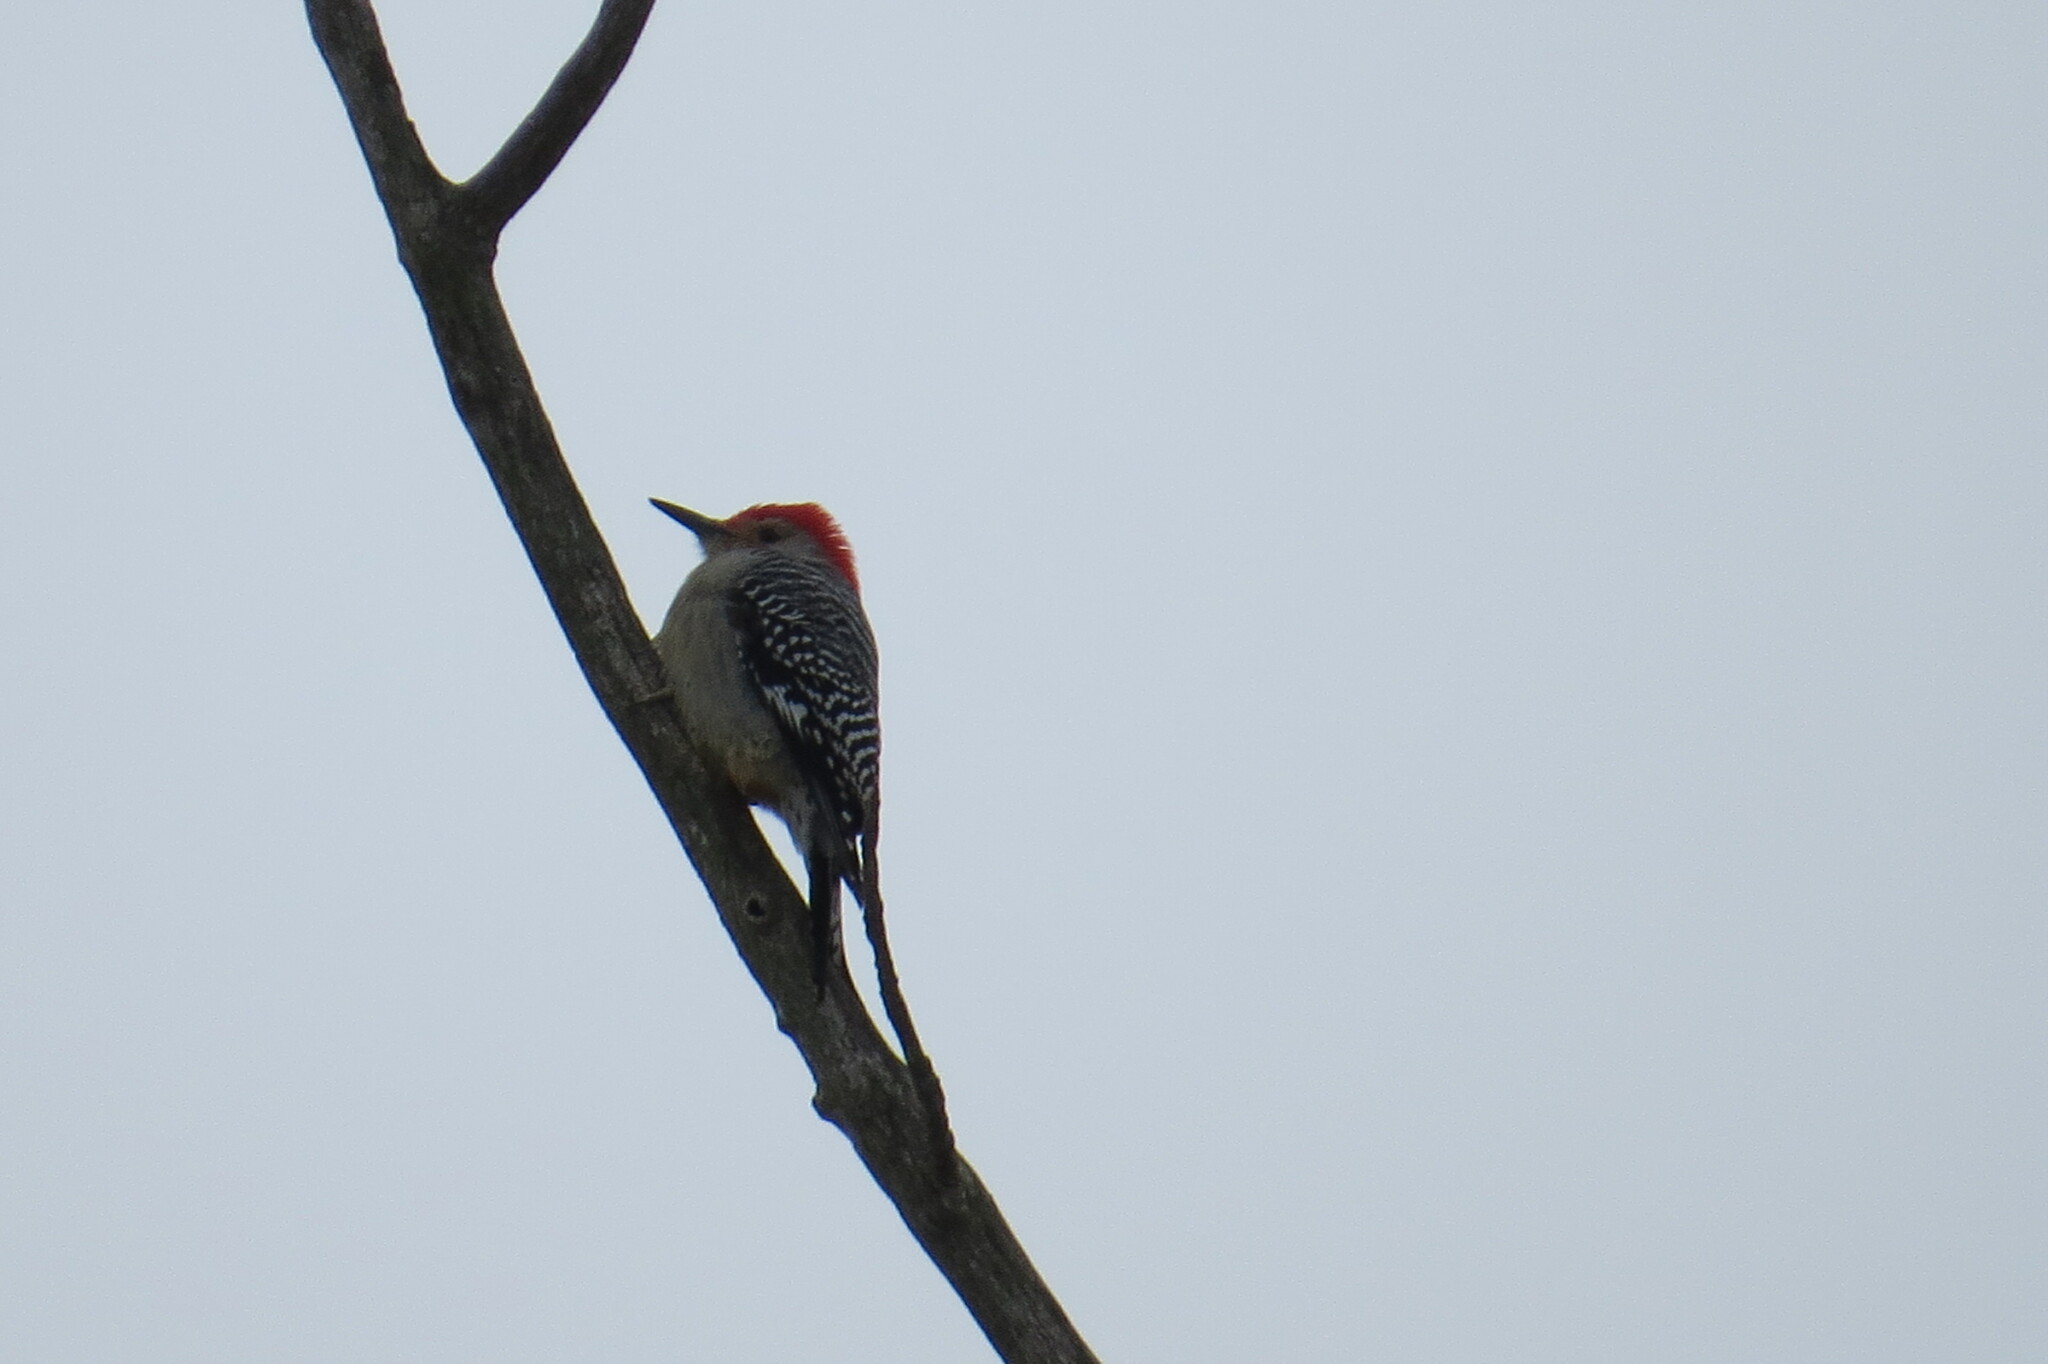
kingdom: Animalia
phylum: Chordata
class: Aves
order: Piciformes
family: Picidae
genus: Melanerpes
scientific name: Melanerpes carolinus
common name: Red-bellied woodpecker
